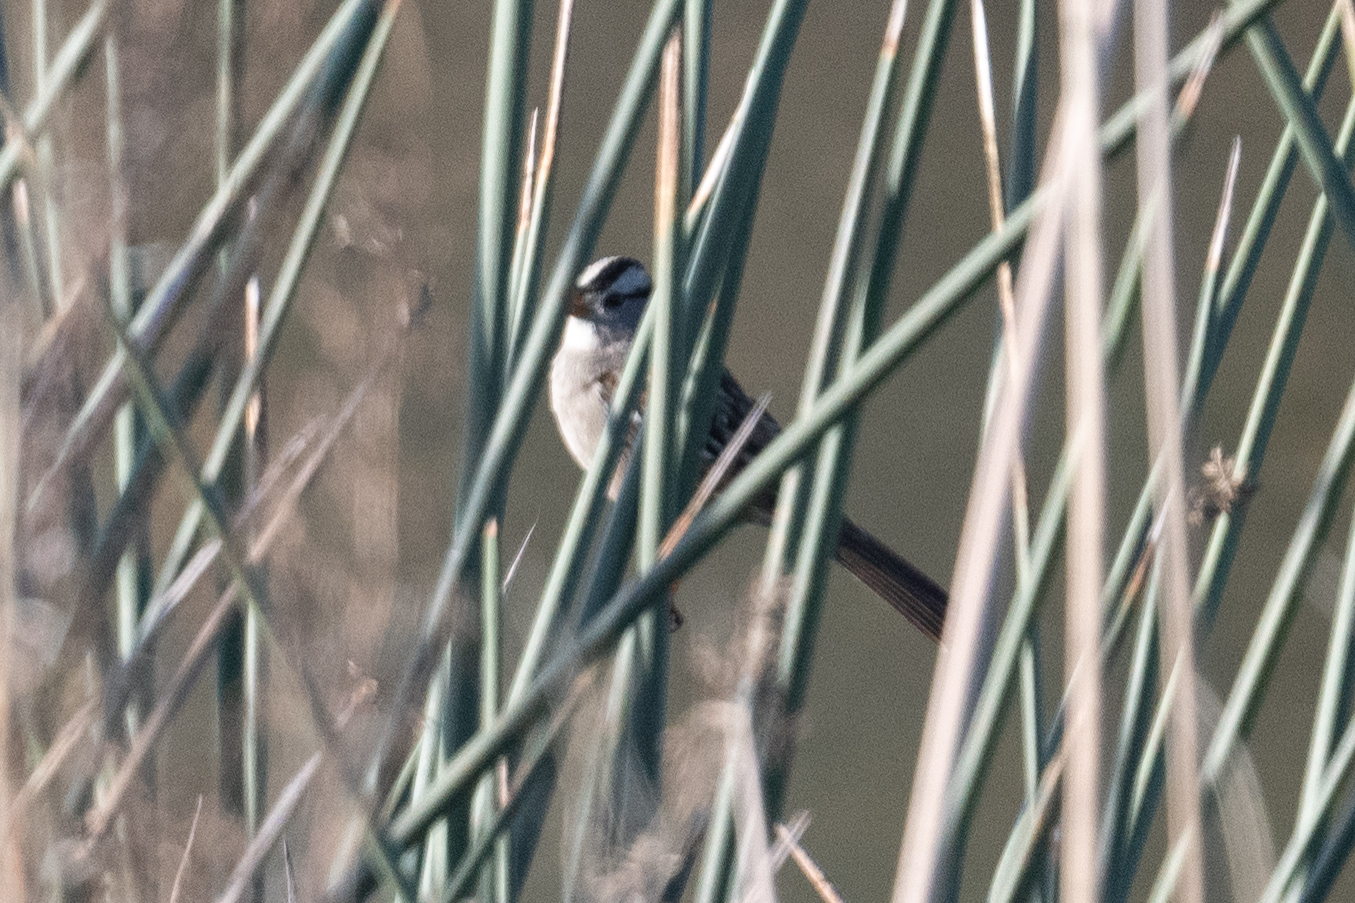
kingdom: Animalia
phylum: Chordata
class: Aves
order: Passeriformes
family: Passerellidae
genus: Zonotrichia
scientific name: Zonotrichia leucophrys
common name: White-crowned sparrow
